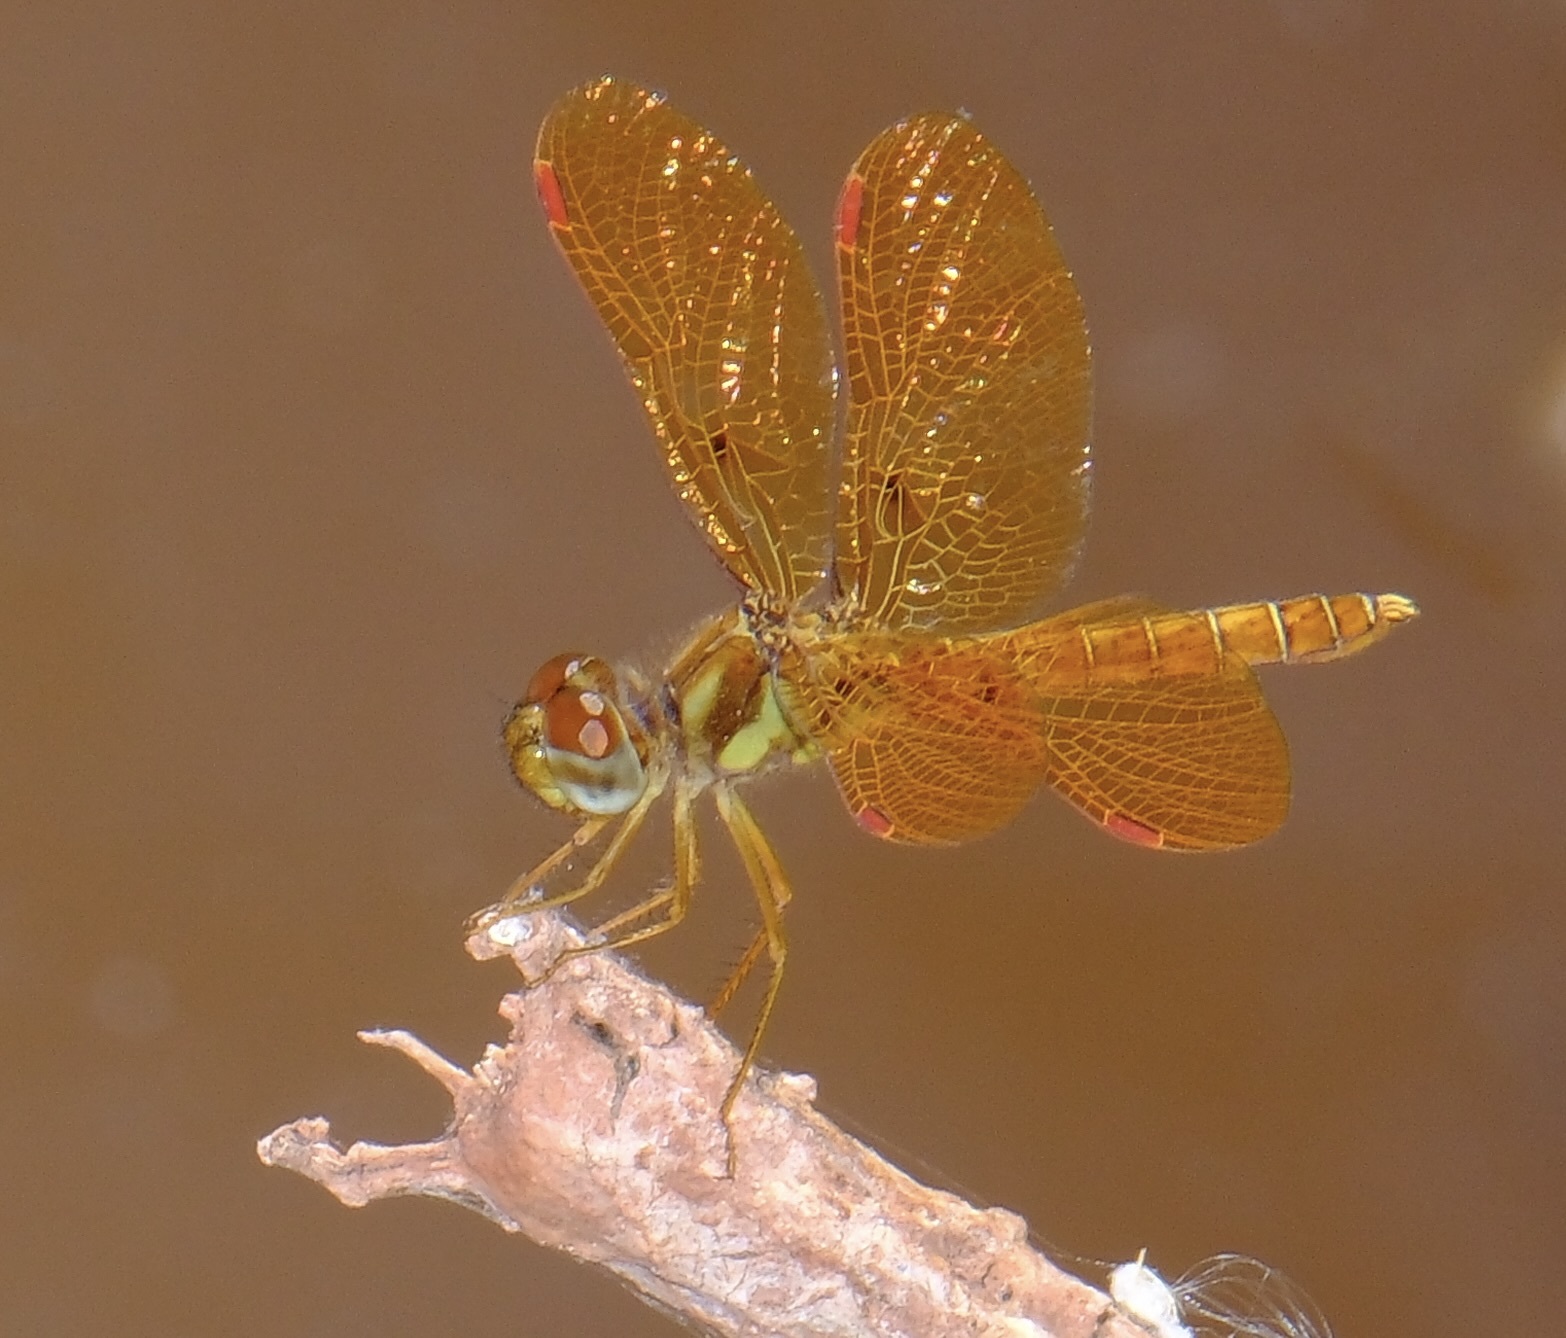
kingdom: Animalia
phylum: Arthropoda
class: Insecta
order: Odonata
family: Libellulidae
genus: Perithemis
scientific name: Perithemis tenera
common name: Eastern amberwing
